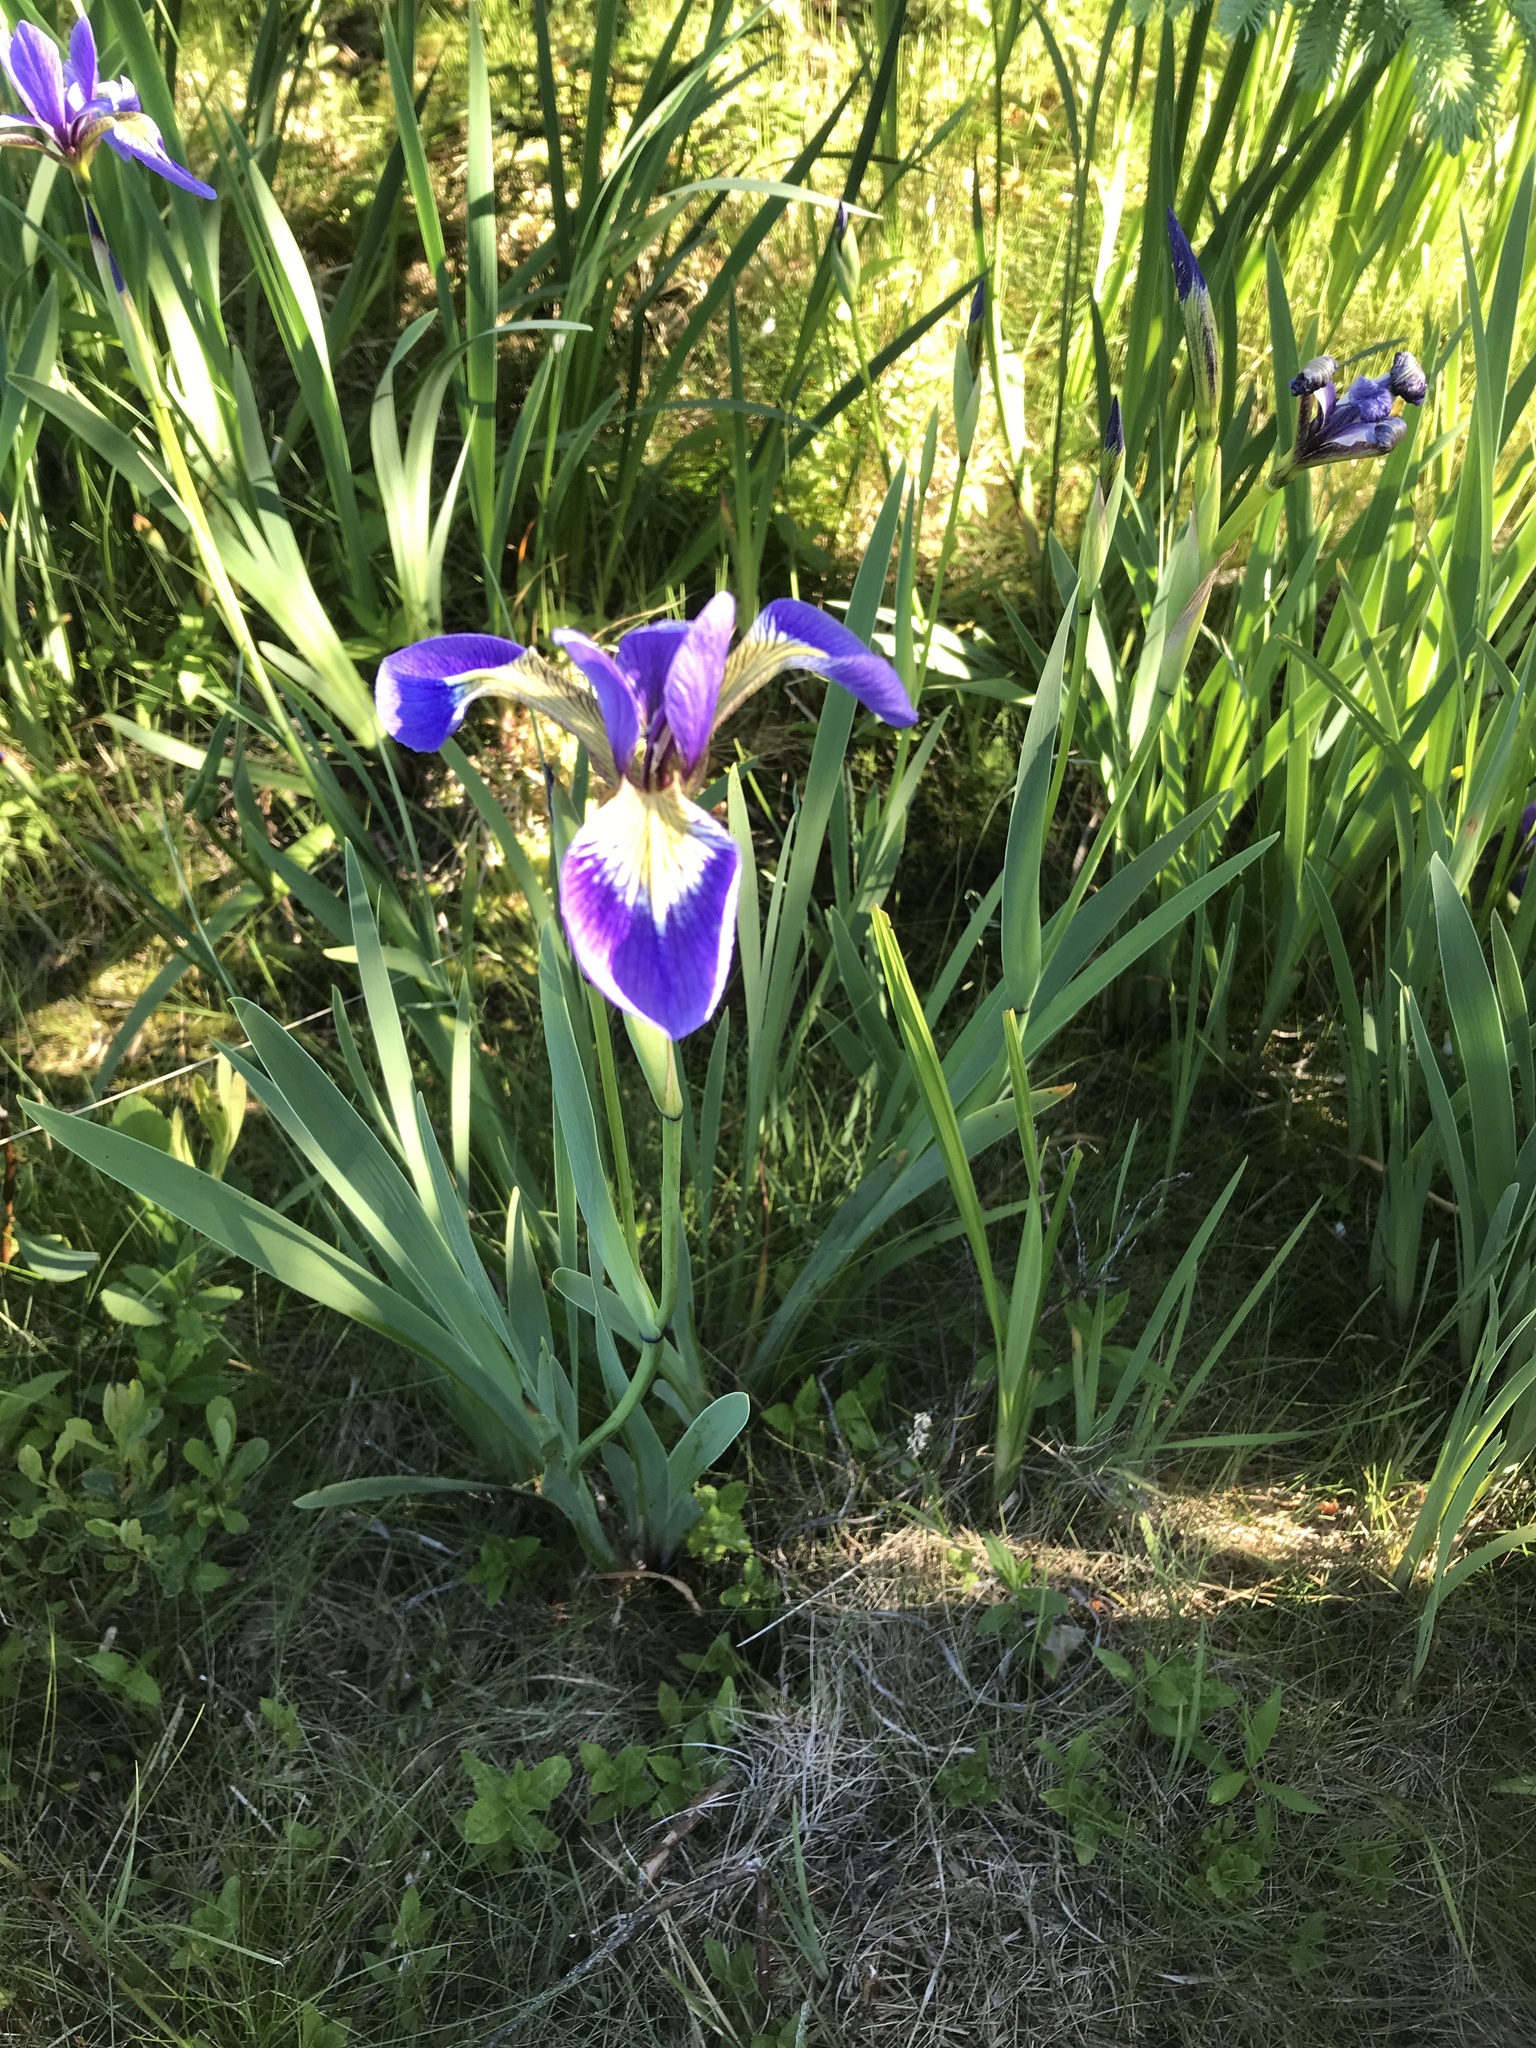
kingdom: Plantae
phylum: Tracheophyta
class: Liliopsida
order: Asparagales
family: Iridaceae
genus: Iris
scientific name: Iris versicolor
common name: Purple iris
